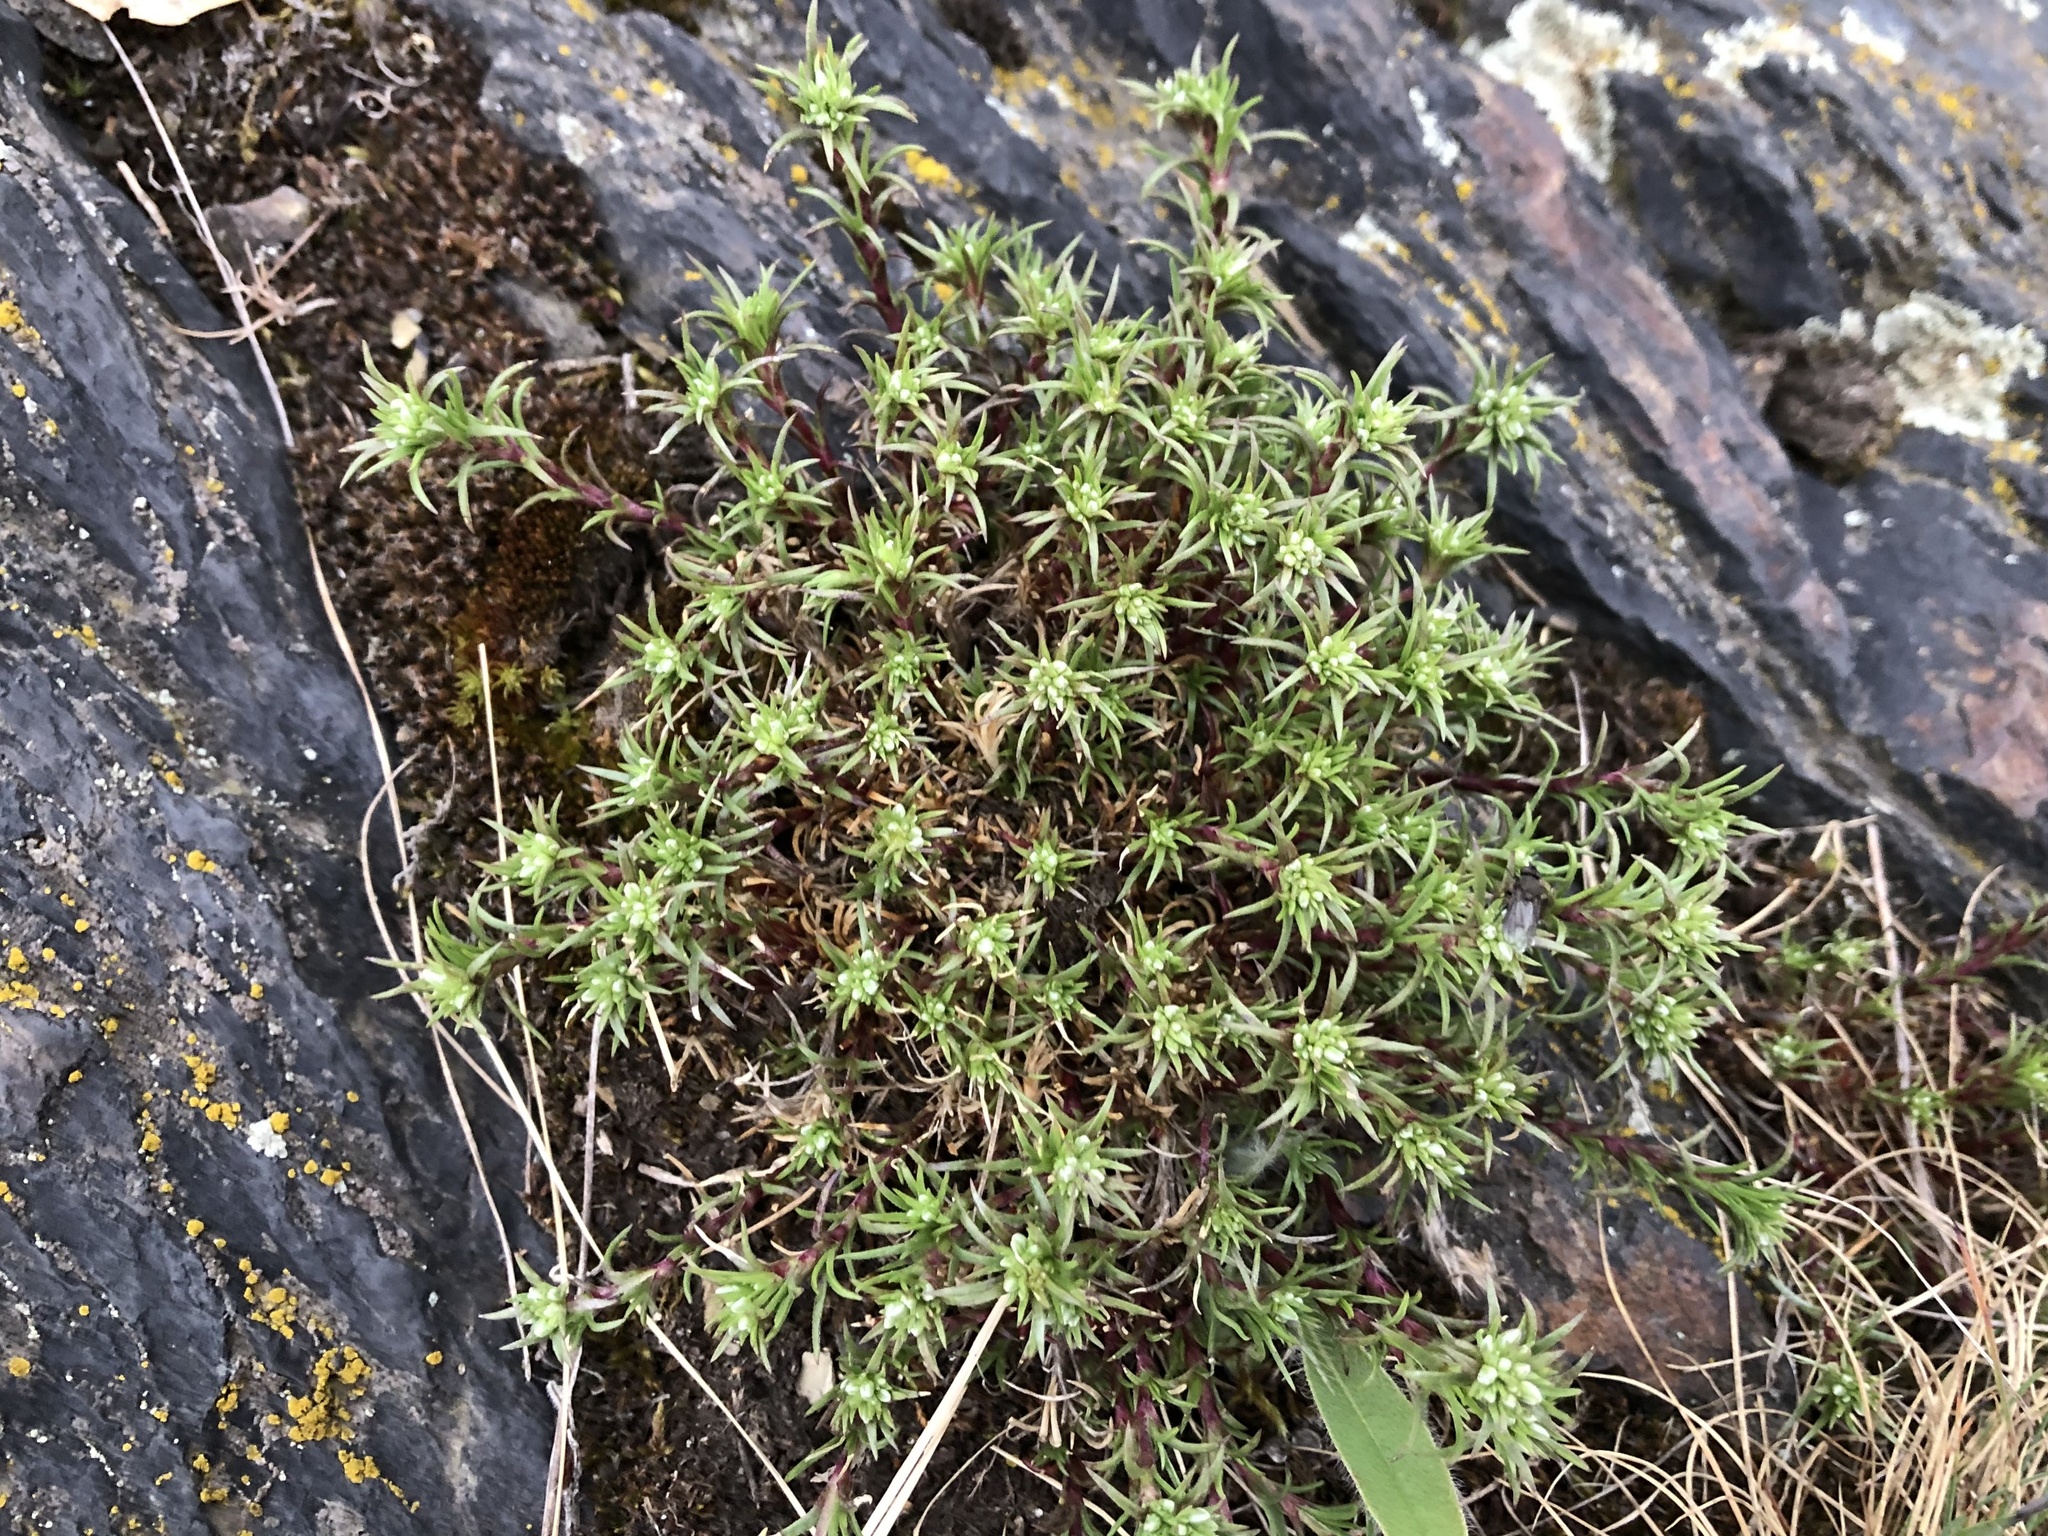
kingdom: Plantae
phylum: Tracheophyta
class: Magnoliopsida
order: Caryophyllales
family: Caryophyllaceae
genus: Scleranthus
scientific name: Scleranthus perennis
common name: Perennial knawel
